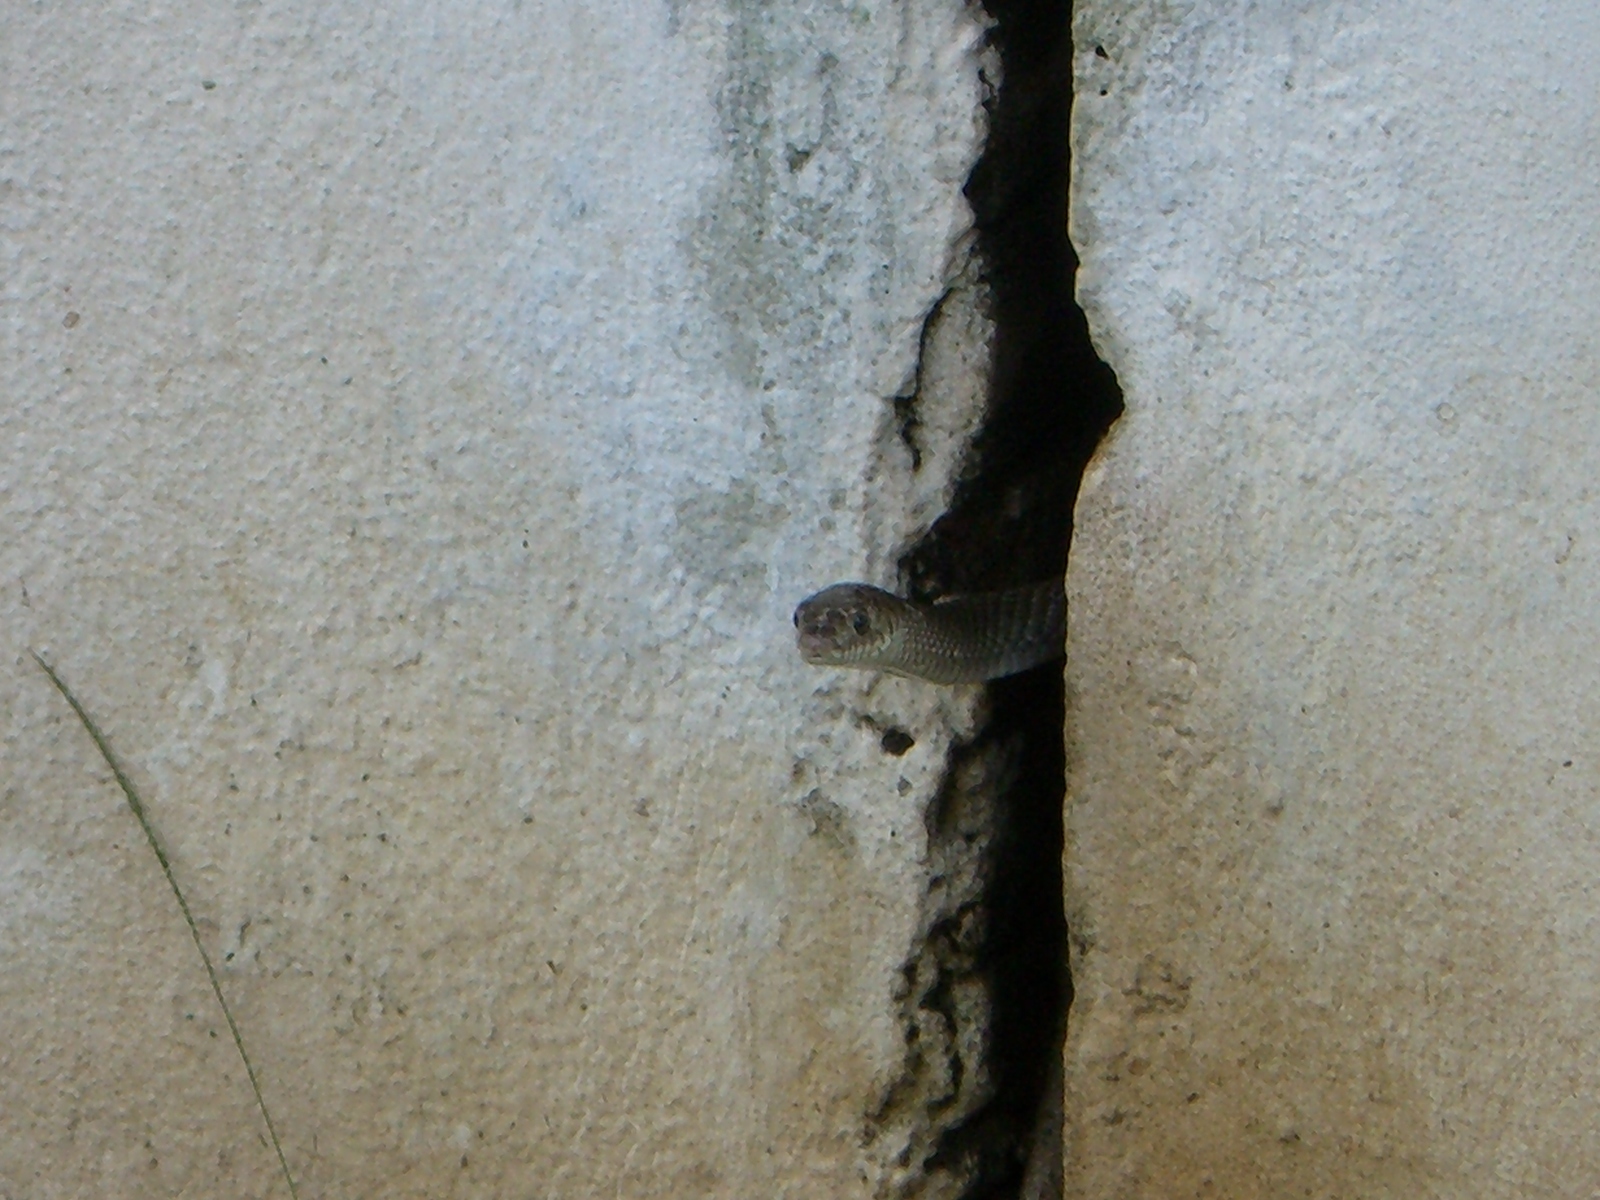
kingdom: Animalia
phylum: Chordata
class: Squamata
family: Colubridae
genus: Ptyas
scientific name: Ptyas mucosa
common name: Oriental ratsnake
